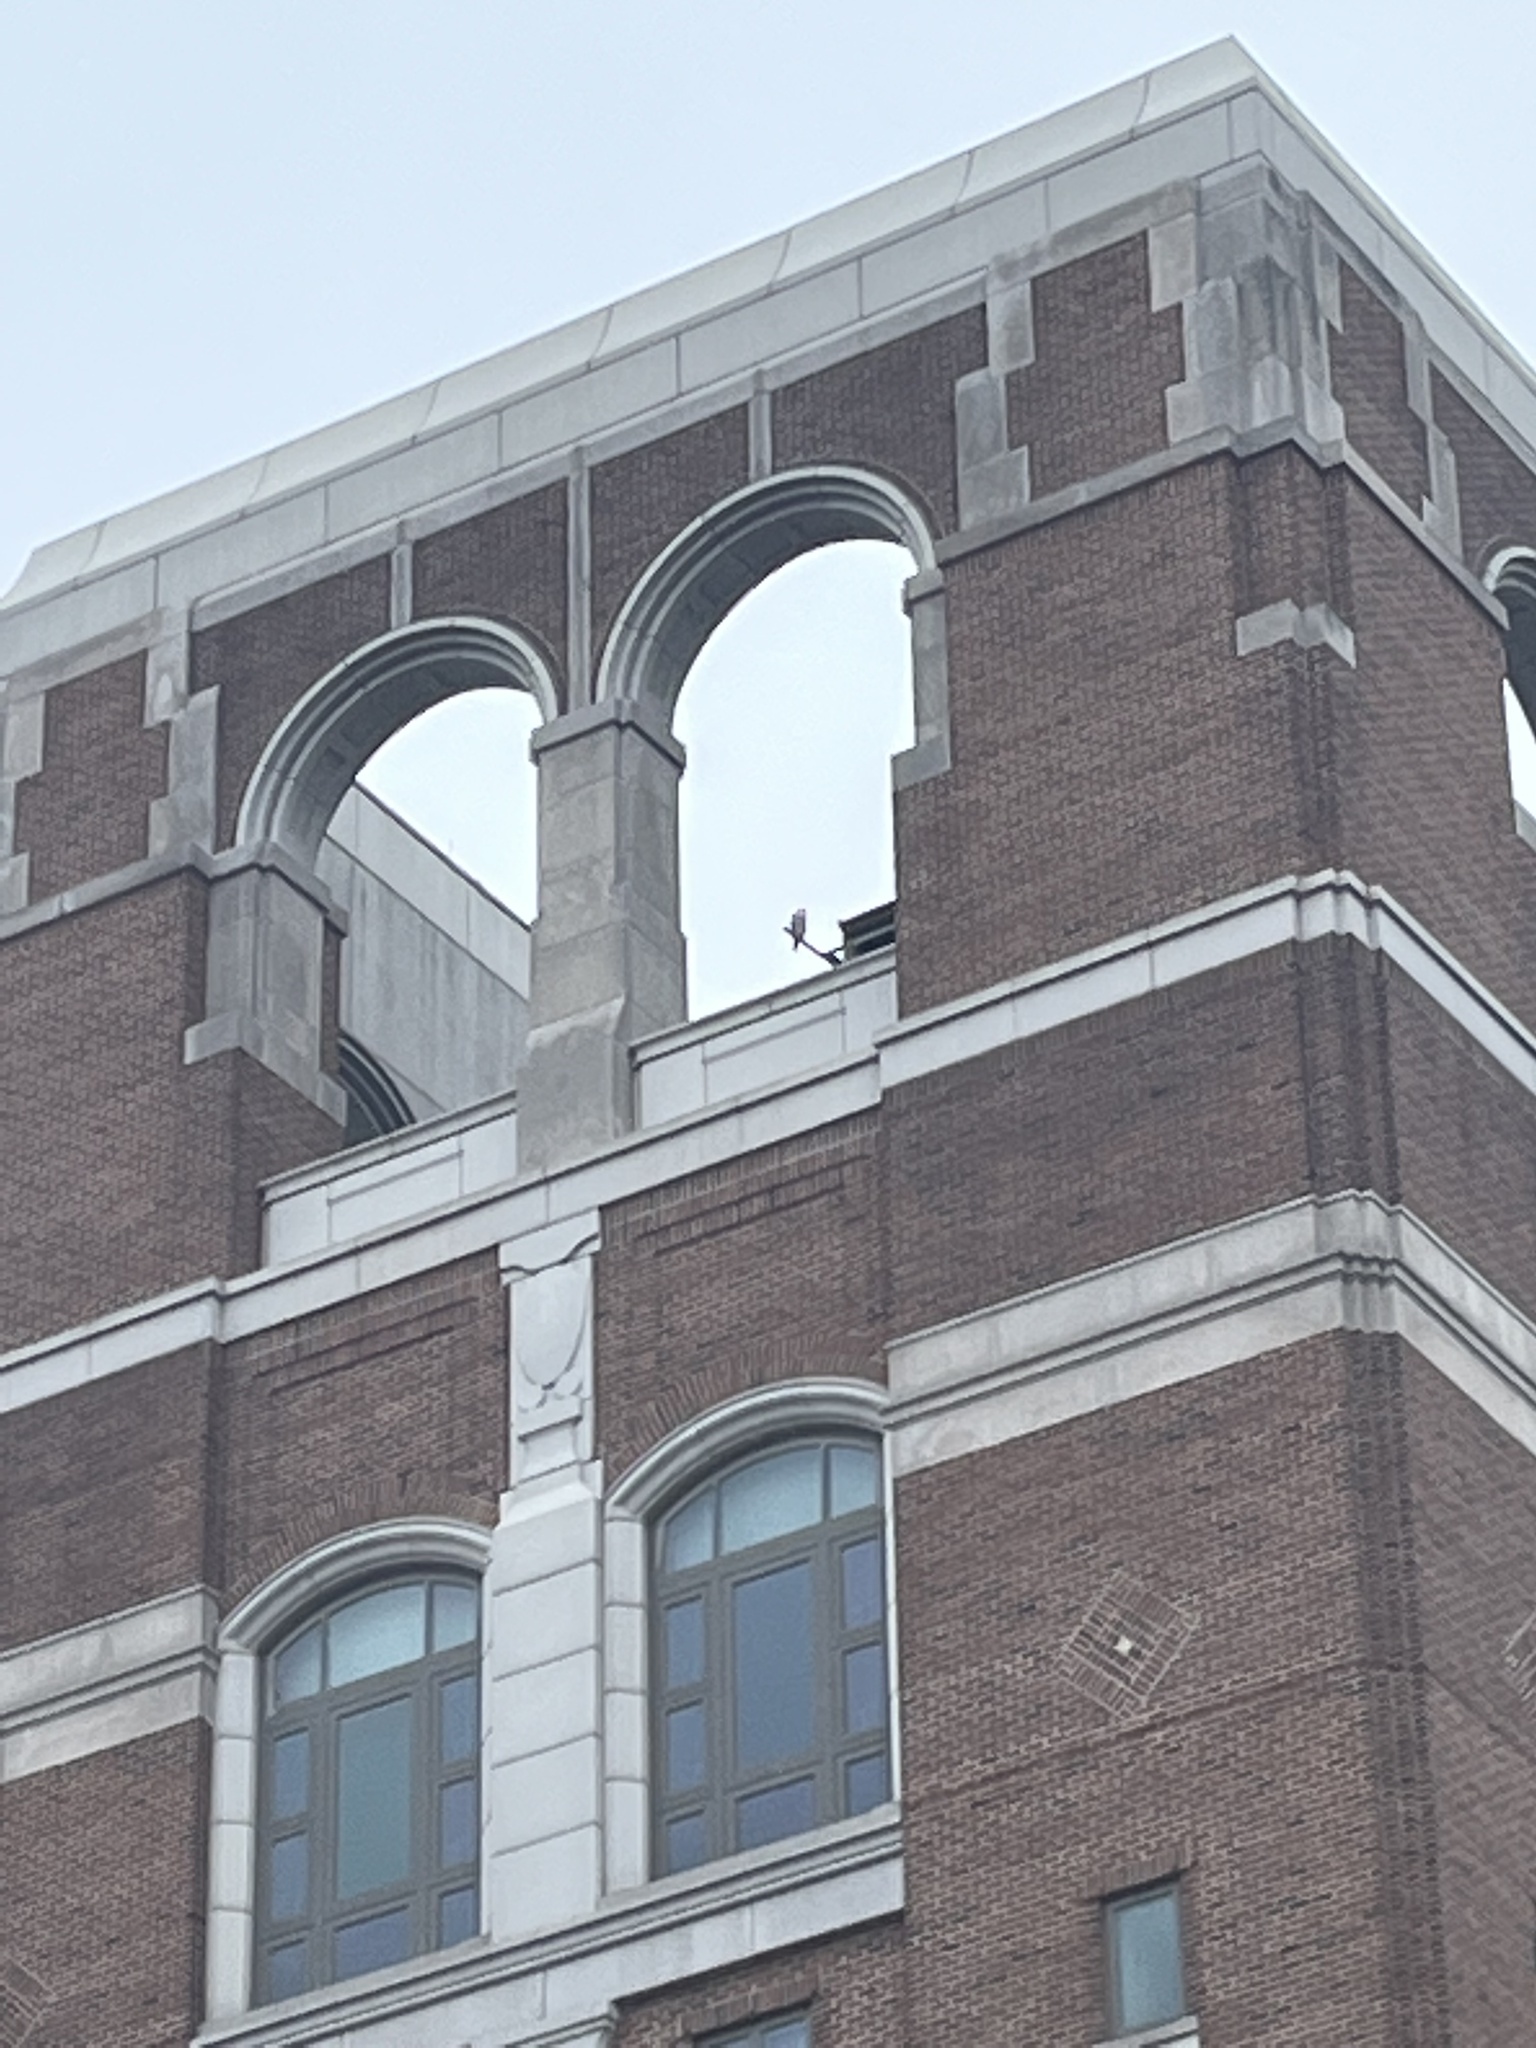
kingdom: Animalia
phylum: Chordata
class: Aves
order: Falconiformes
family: Falconidae
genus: Falco
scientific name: Falco peregrinus
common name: Peregrine falcon
